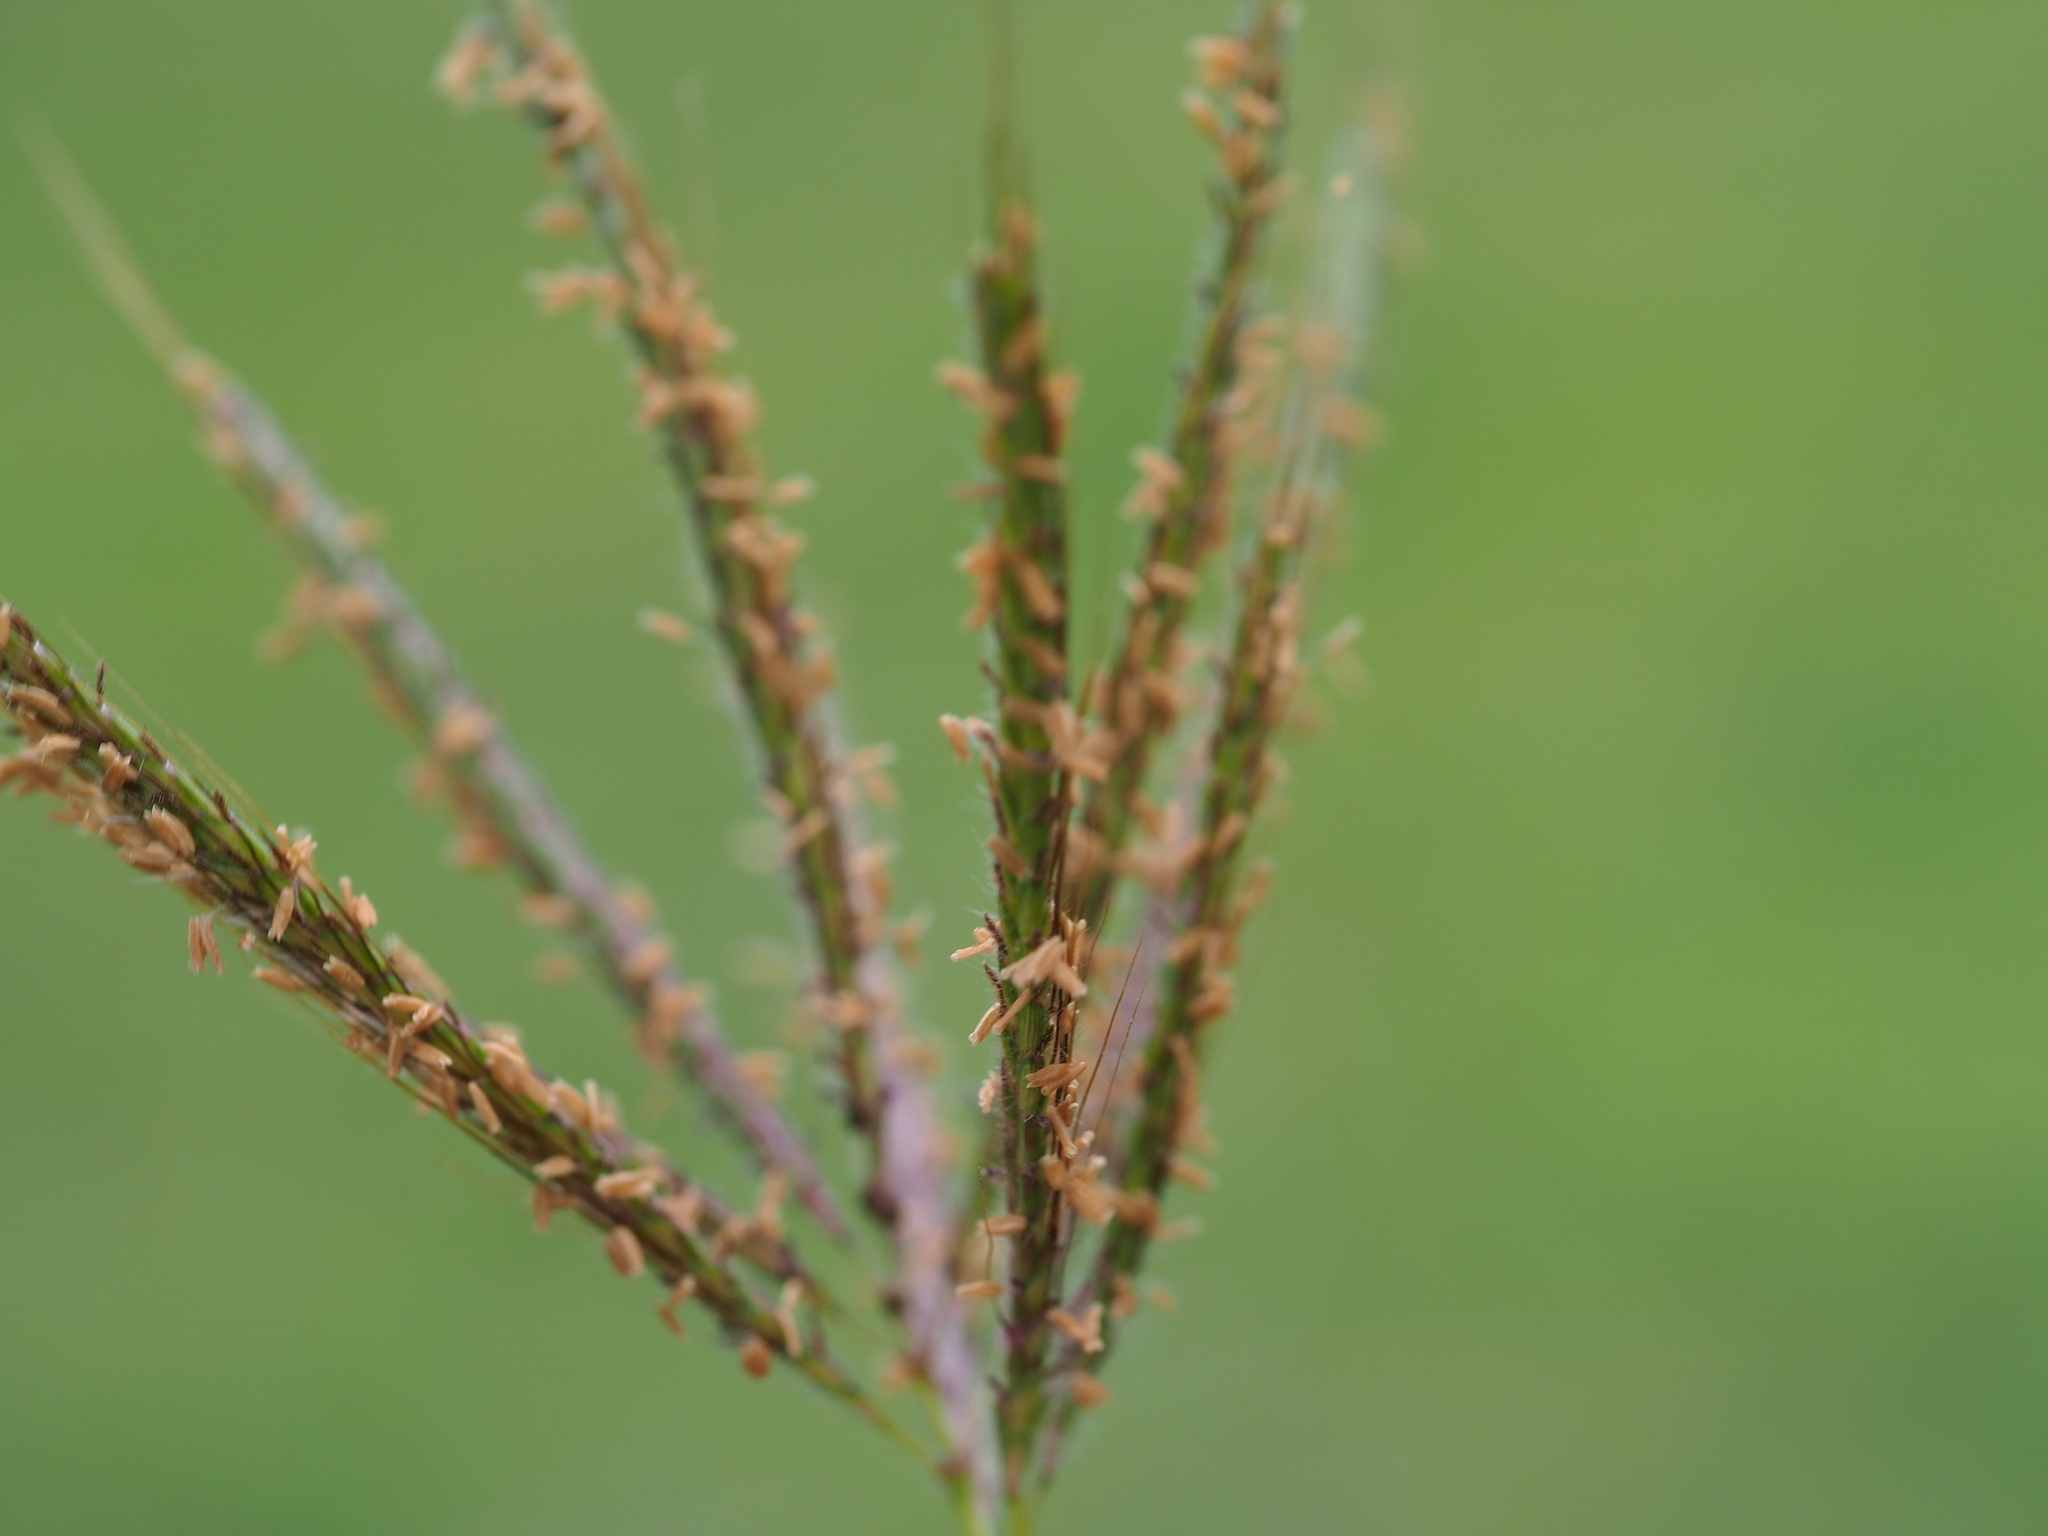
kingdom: Plantae
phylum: Tracheophyta
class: Liliopsida
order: Poales
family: Poaceae
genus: Dichanthium
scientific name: Dichanthium annulatum
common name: Kleberg's bluestem
